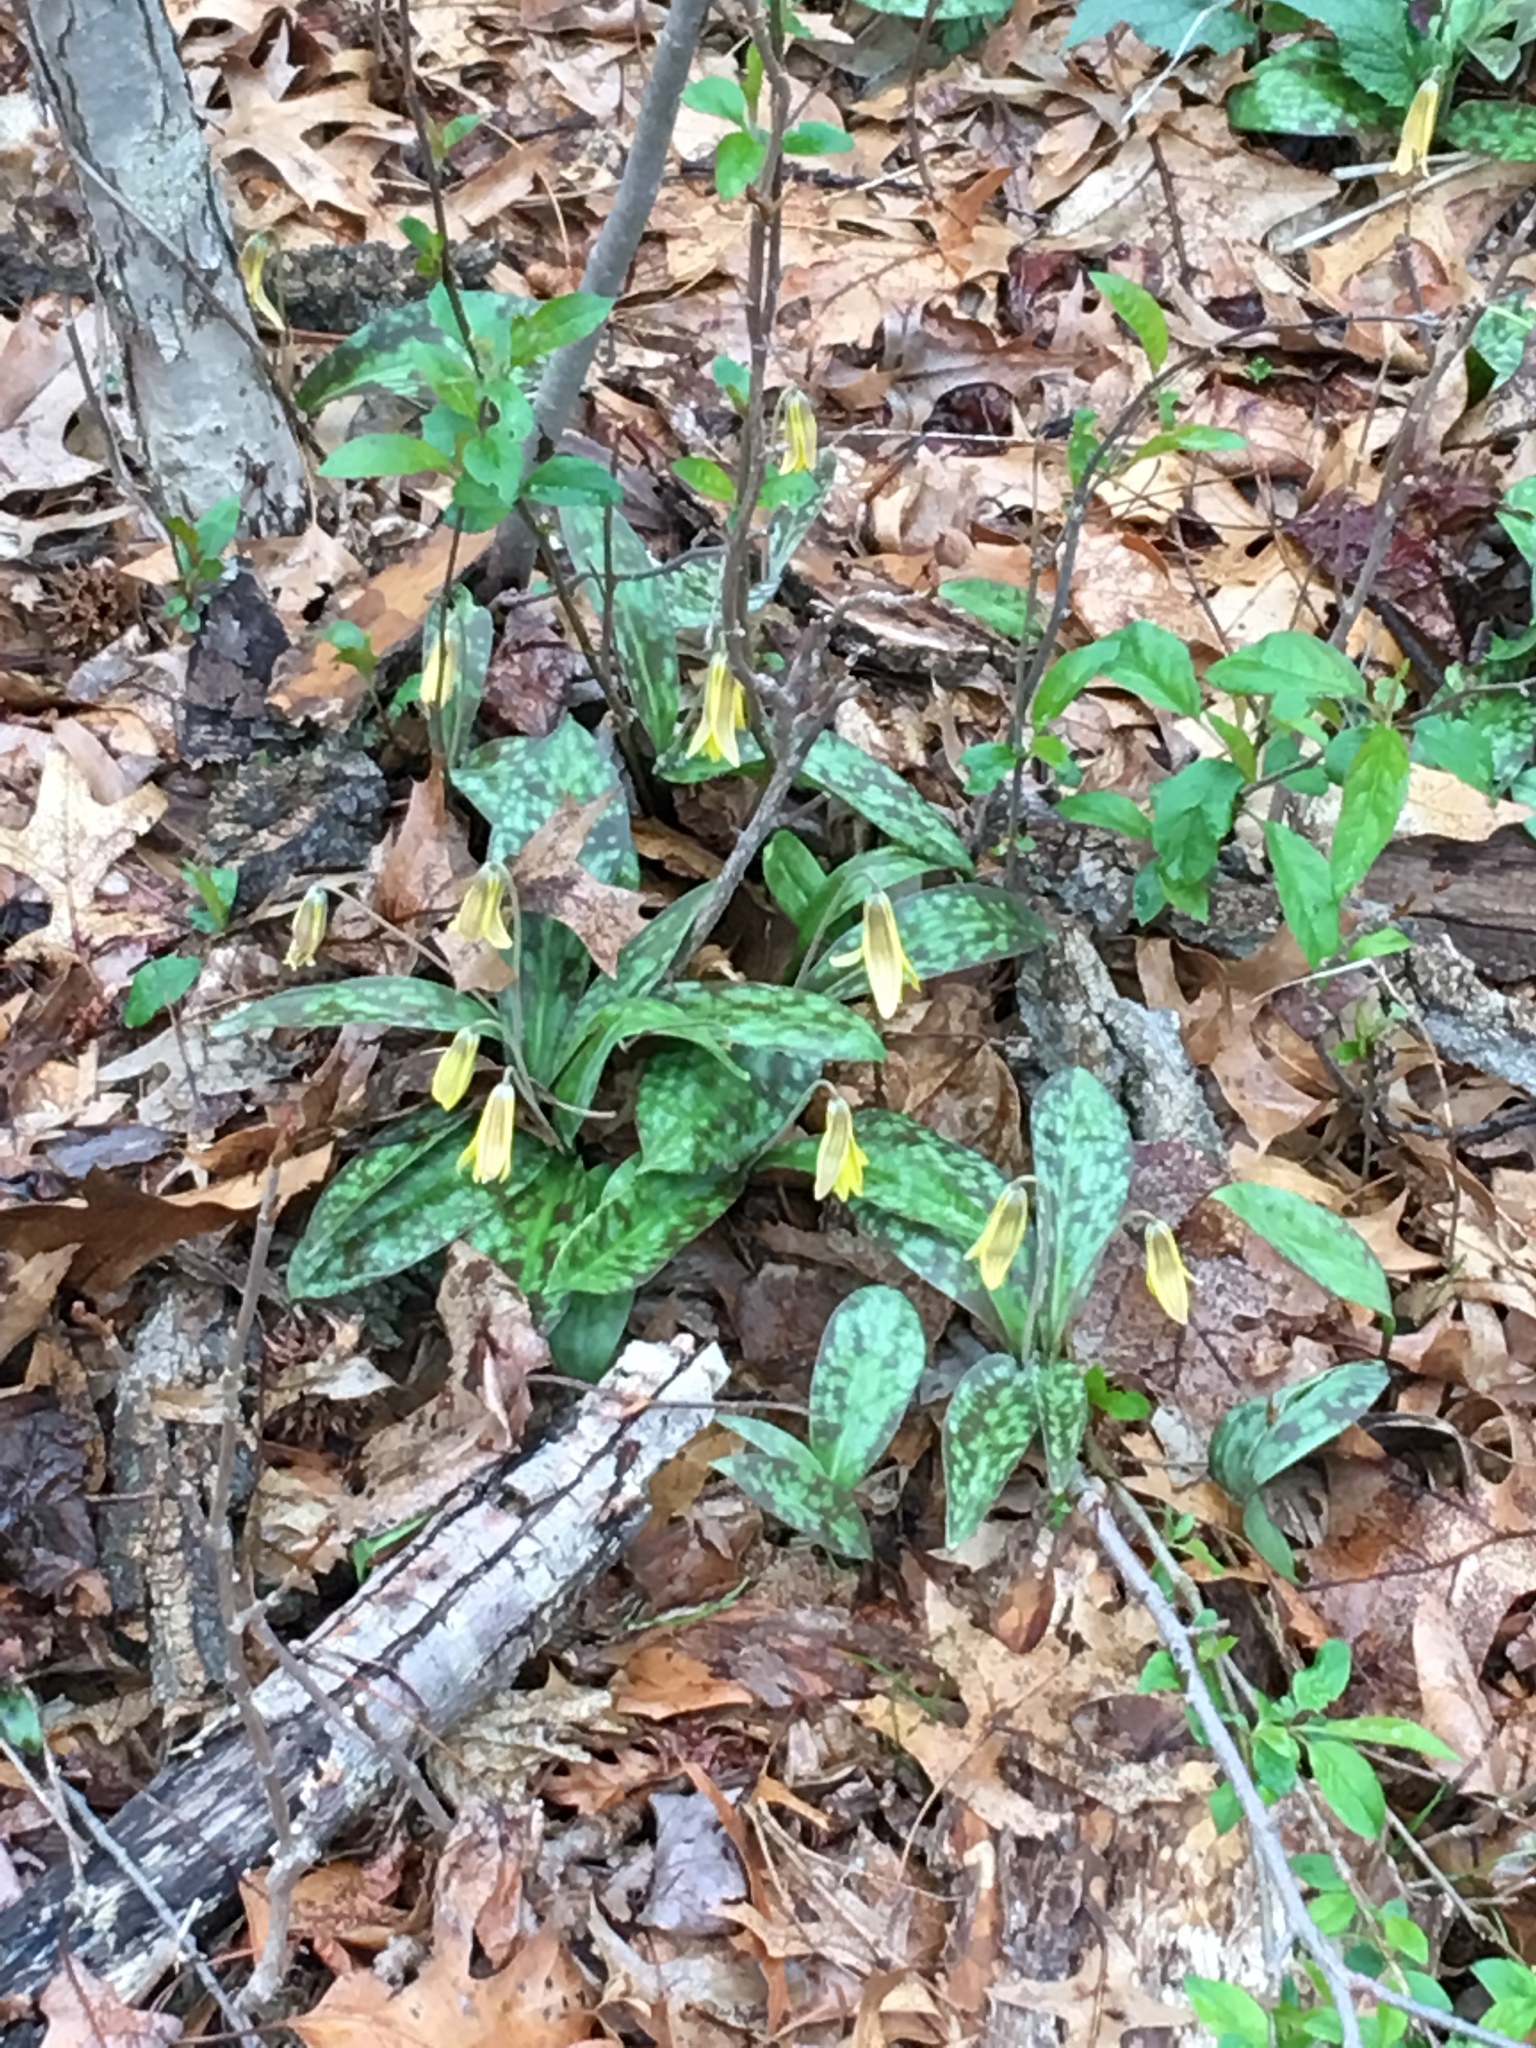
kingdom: Plantae
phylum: Tracheophyta
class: Liliopsida
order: Liliales
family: Liliaceae
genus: Erythronium
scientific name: Erythronium americanum
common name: Yellow adder's-tongue
